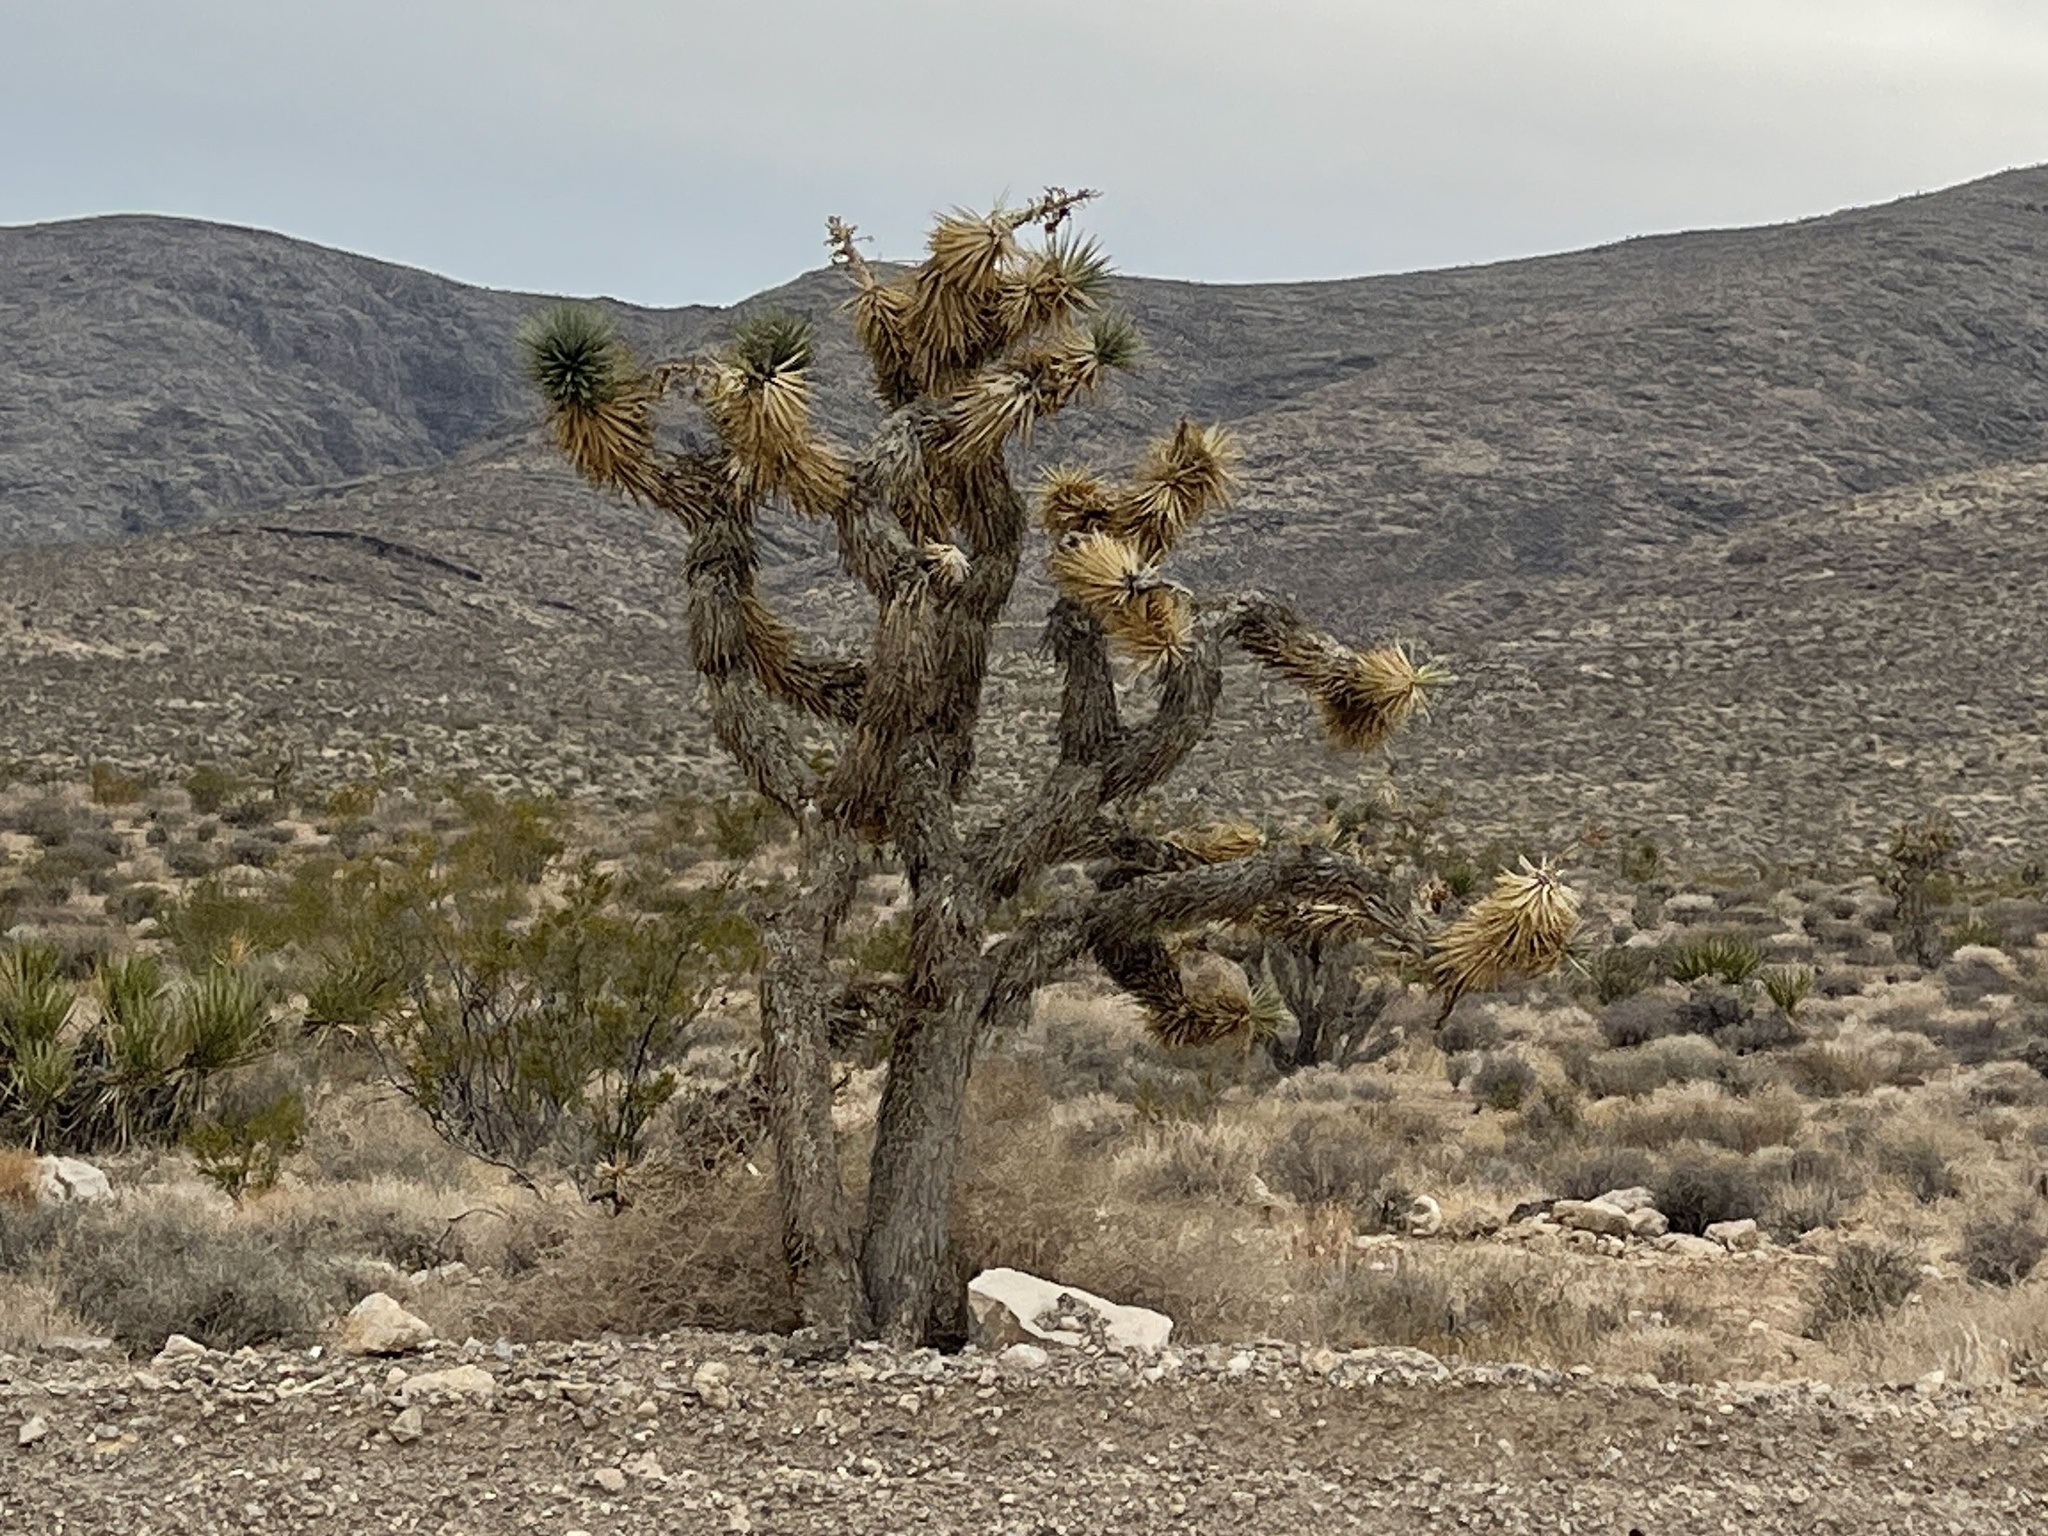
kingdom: Plantae
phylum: Tracheophyta
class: Liliopsida
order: Asparagales
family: Asparagaceae
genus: Yucca
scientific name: Yucca brevifolia
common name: Joshua tree
